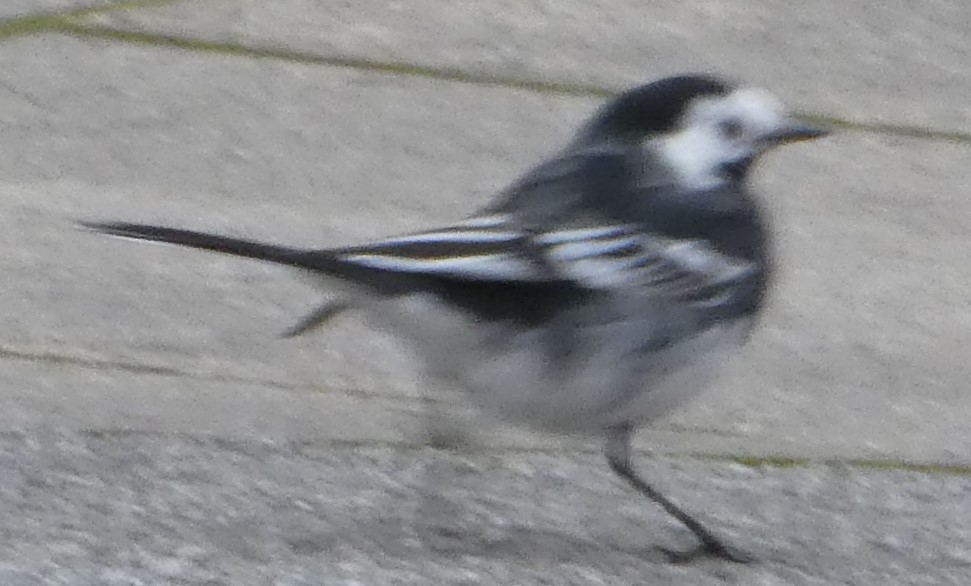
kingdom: Animalia
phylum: Chordata
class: Aves
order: Passeriformes
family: Motacillidae
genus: Motacilla
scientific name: Motacilla alba
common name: White wagtail
